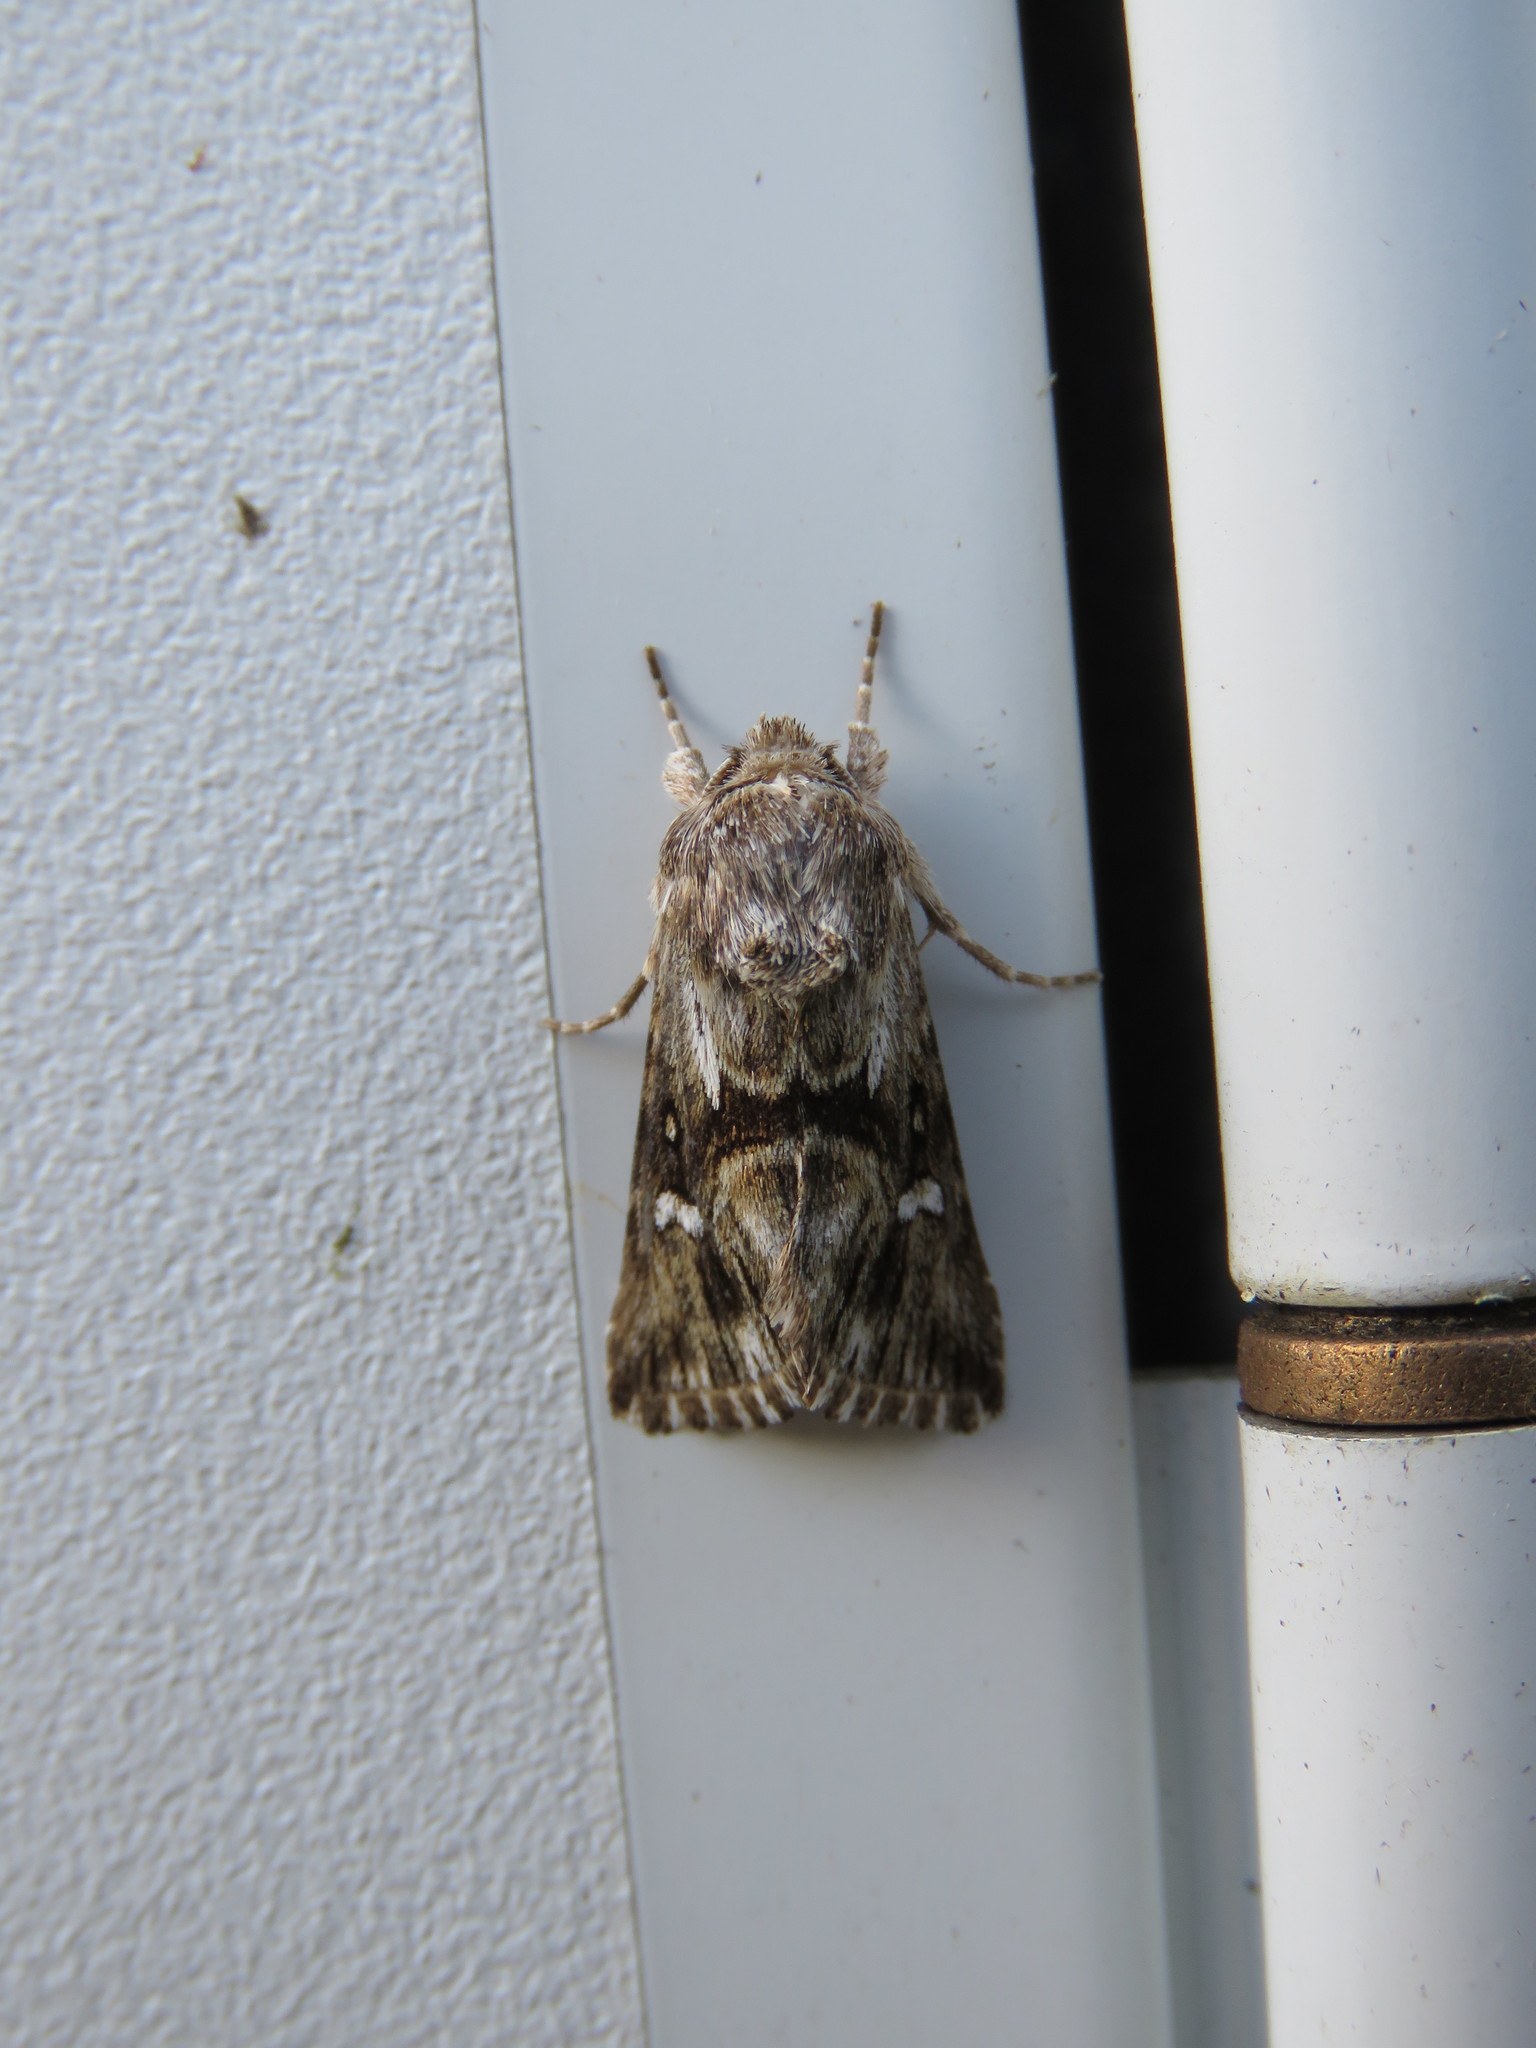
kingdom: Animalia
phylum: Arthropoda
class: Insecta
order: Lepidoptera
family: Noctuidae
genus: Calophasia
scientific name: Calophasia lunula
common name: Toadflax brocade
